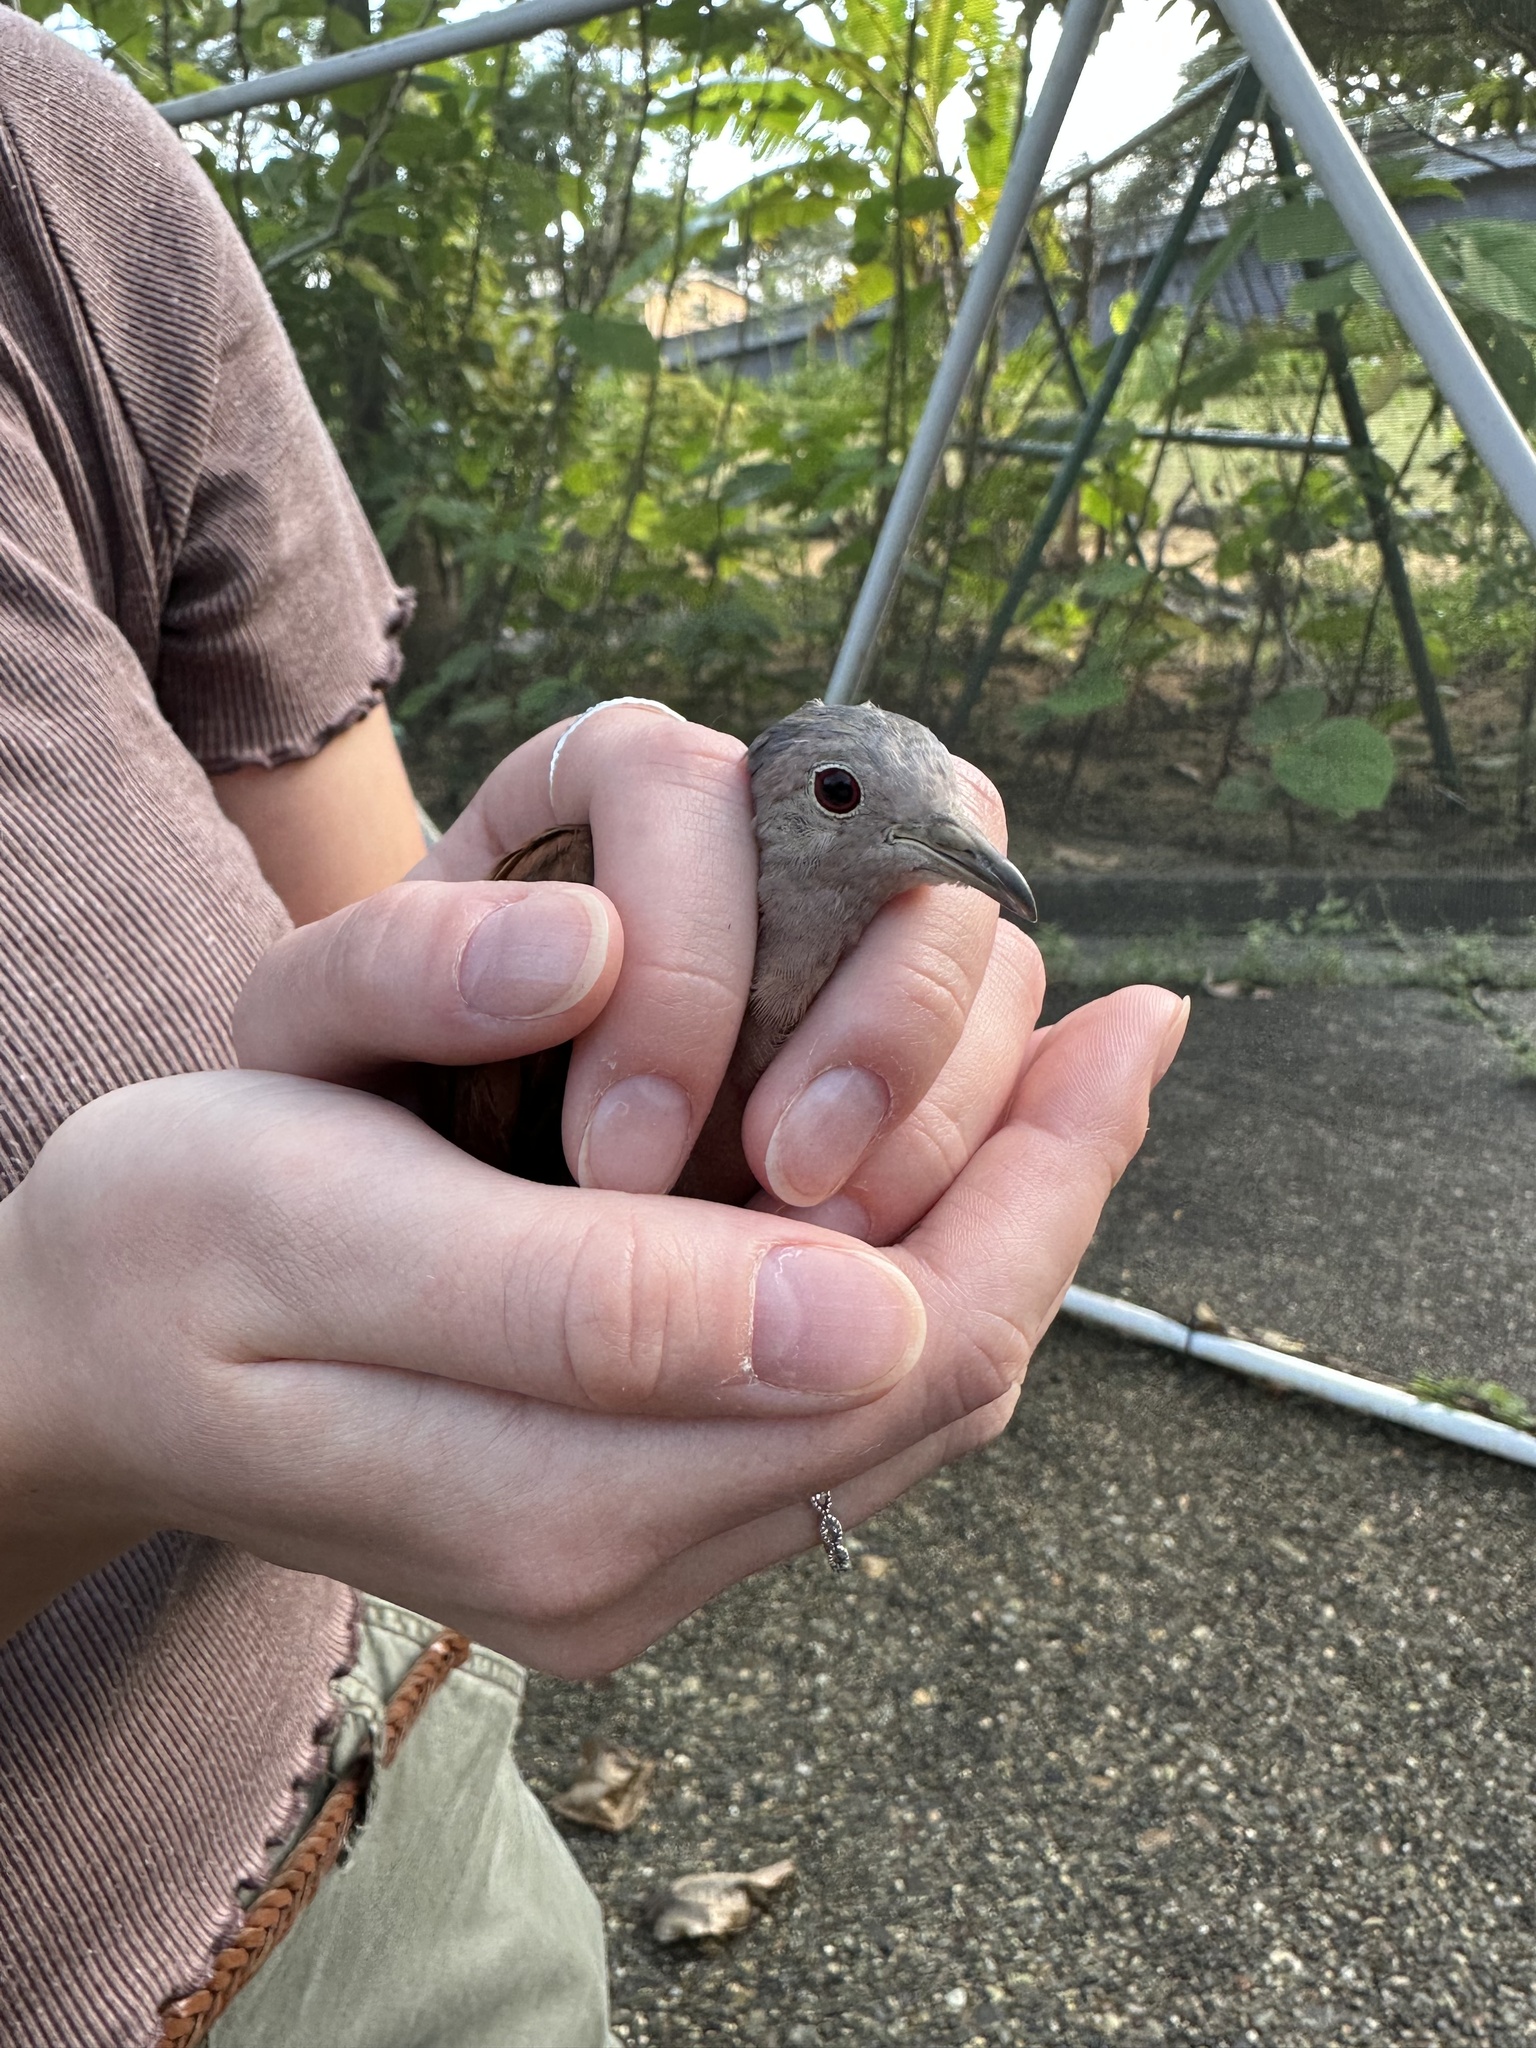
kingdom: Animalia
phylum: Chordata
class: Aves
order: Columbiformes
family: Columbidae
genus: Columbina
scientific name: Columbina talpacoti
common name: Ruddy ground dove
